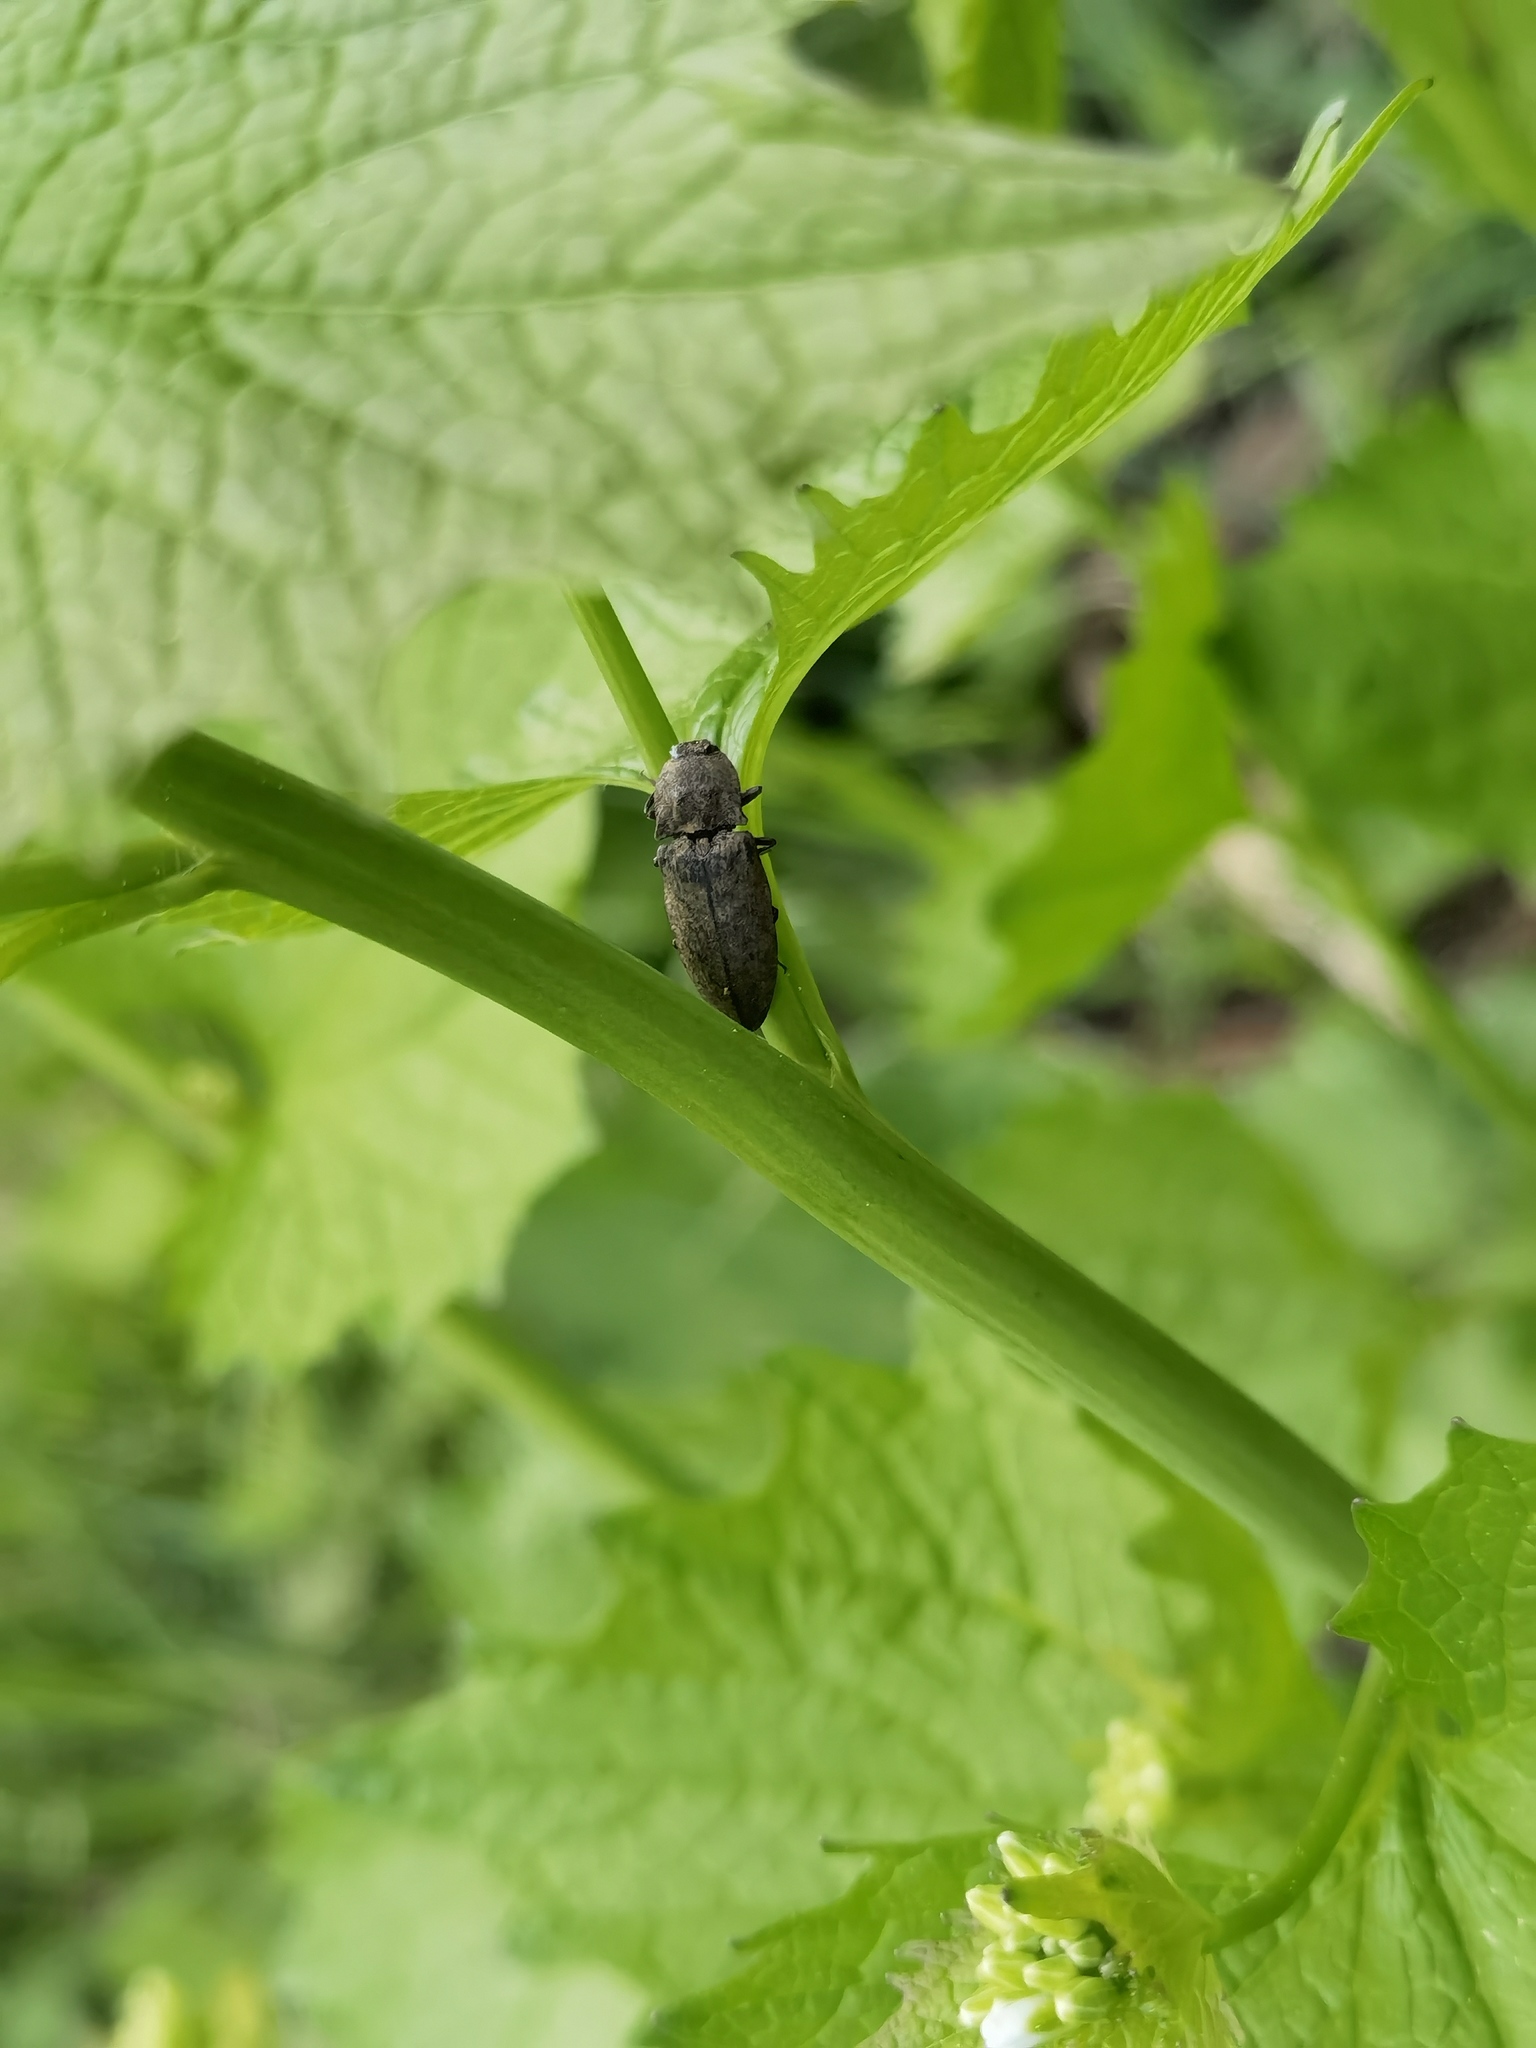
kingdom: Animalia
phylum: Arthropoda
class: Insecta
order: Coleoptera
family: Elateridae
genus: Agrypnus
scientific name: Agrypnus murinus
